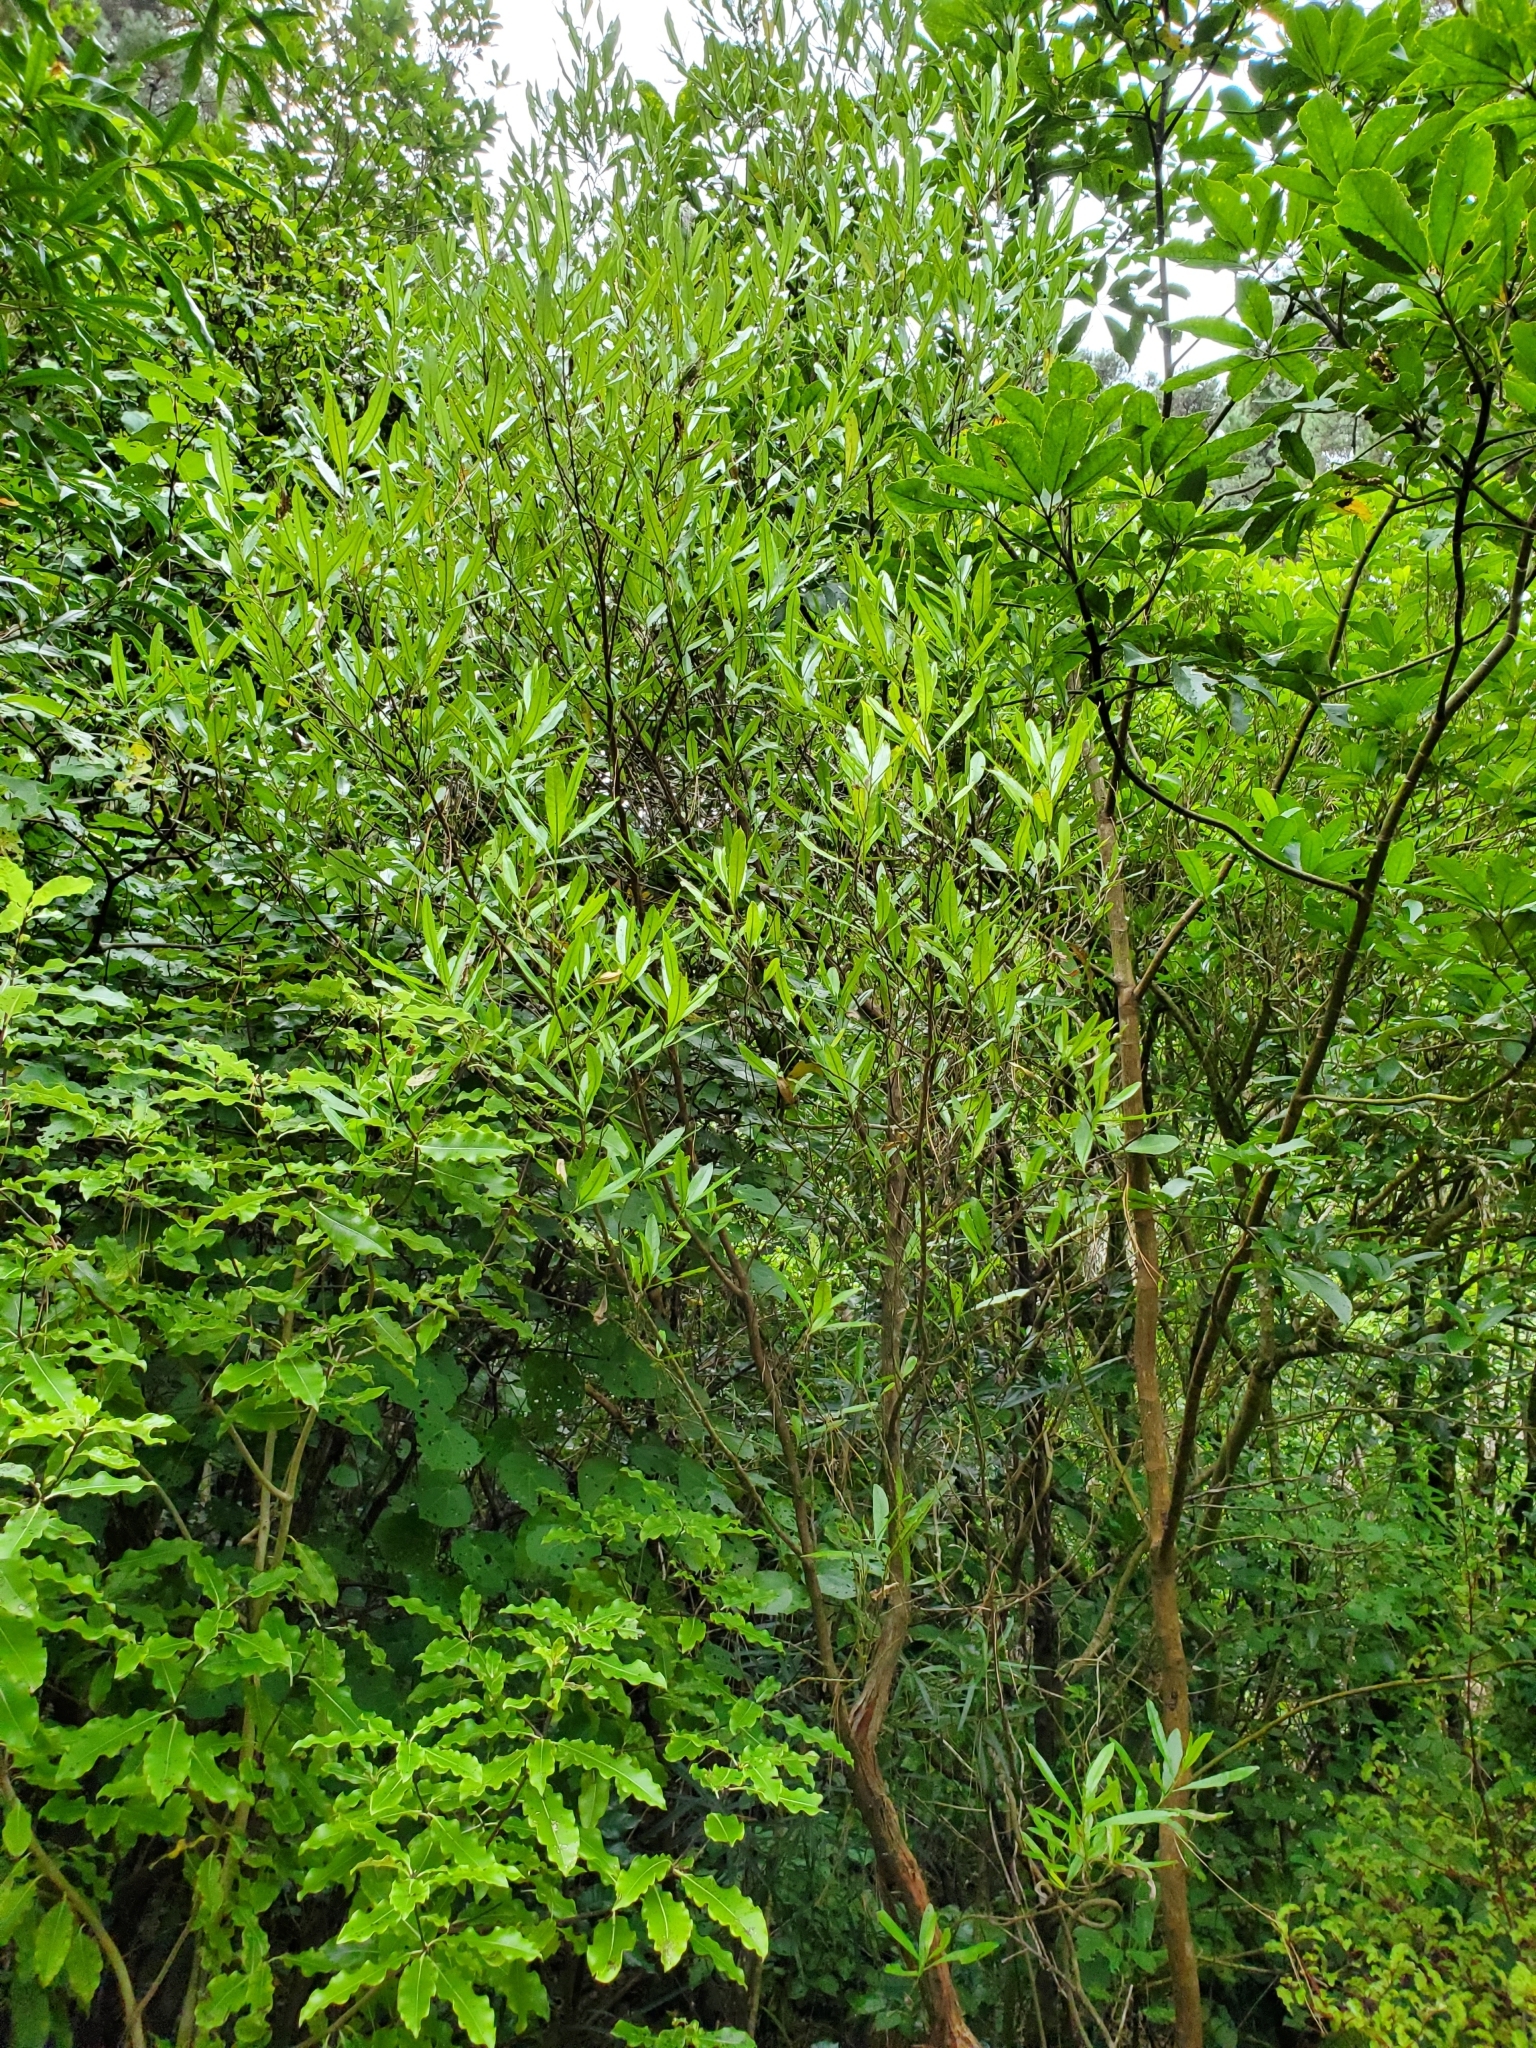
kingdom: Plantae
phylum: Tracheophyta
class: Magnoliopsida
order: Oxalidales
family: Elaeocarpaceae
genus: Elaeocarpus
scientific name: Elaeocarpus dentatus
